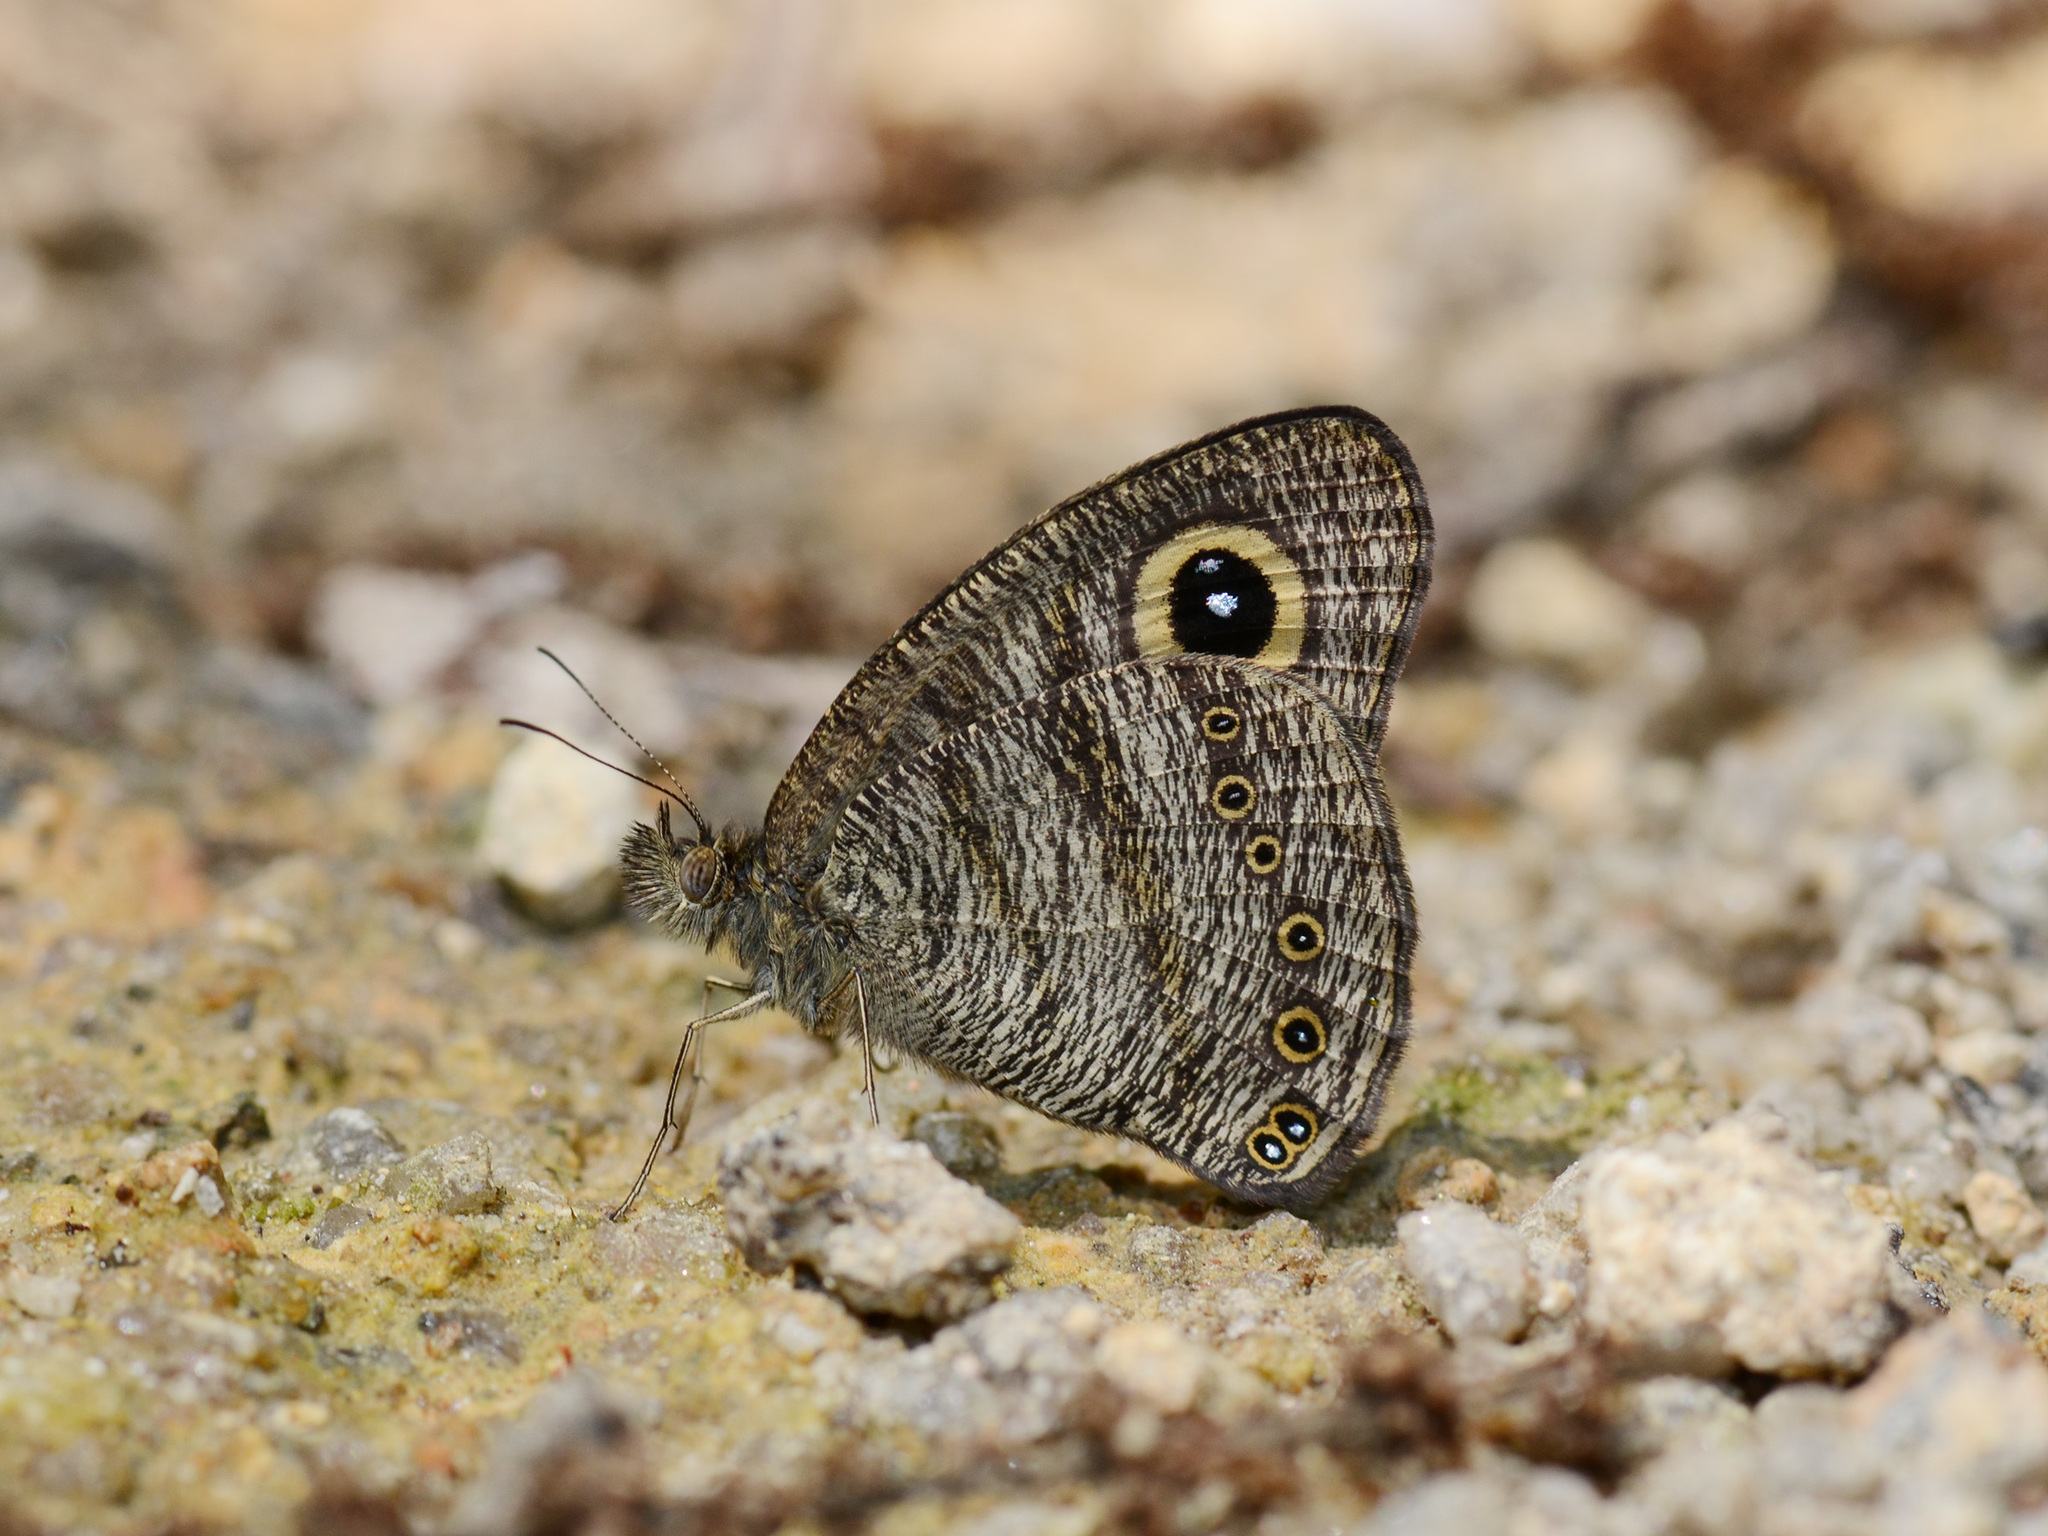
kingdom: Animalia
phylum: Arthropoda
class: Insecta
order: Lepidoptera
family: Nymphalidae
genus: Ypthima
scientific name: Ypthima fasciata
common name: Malayan six-ring
